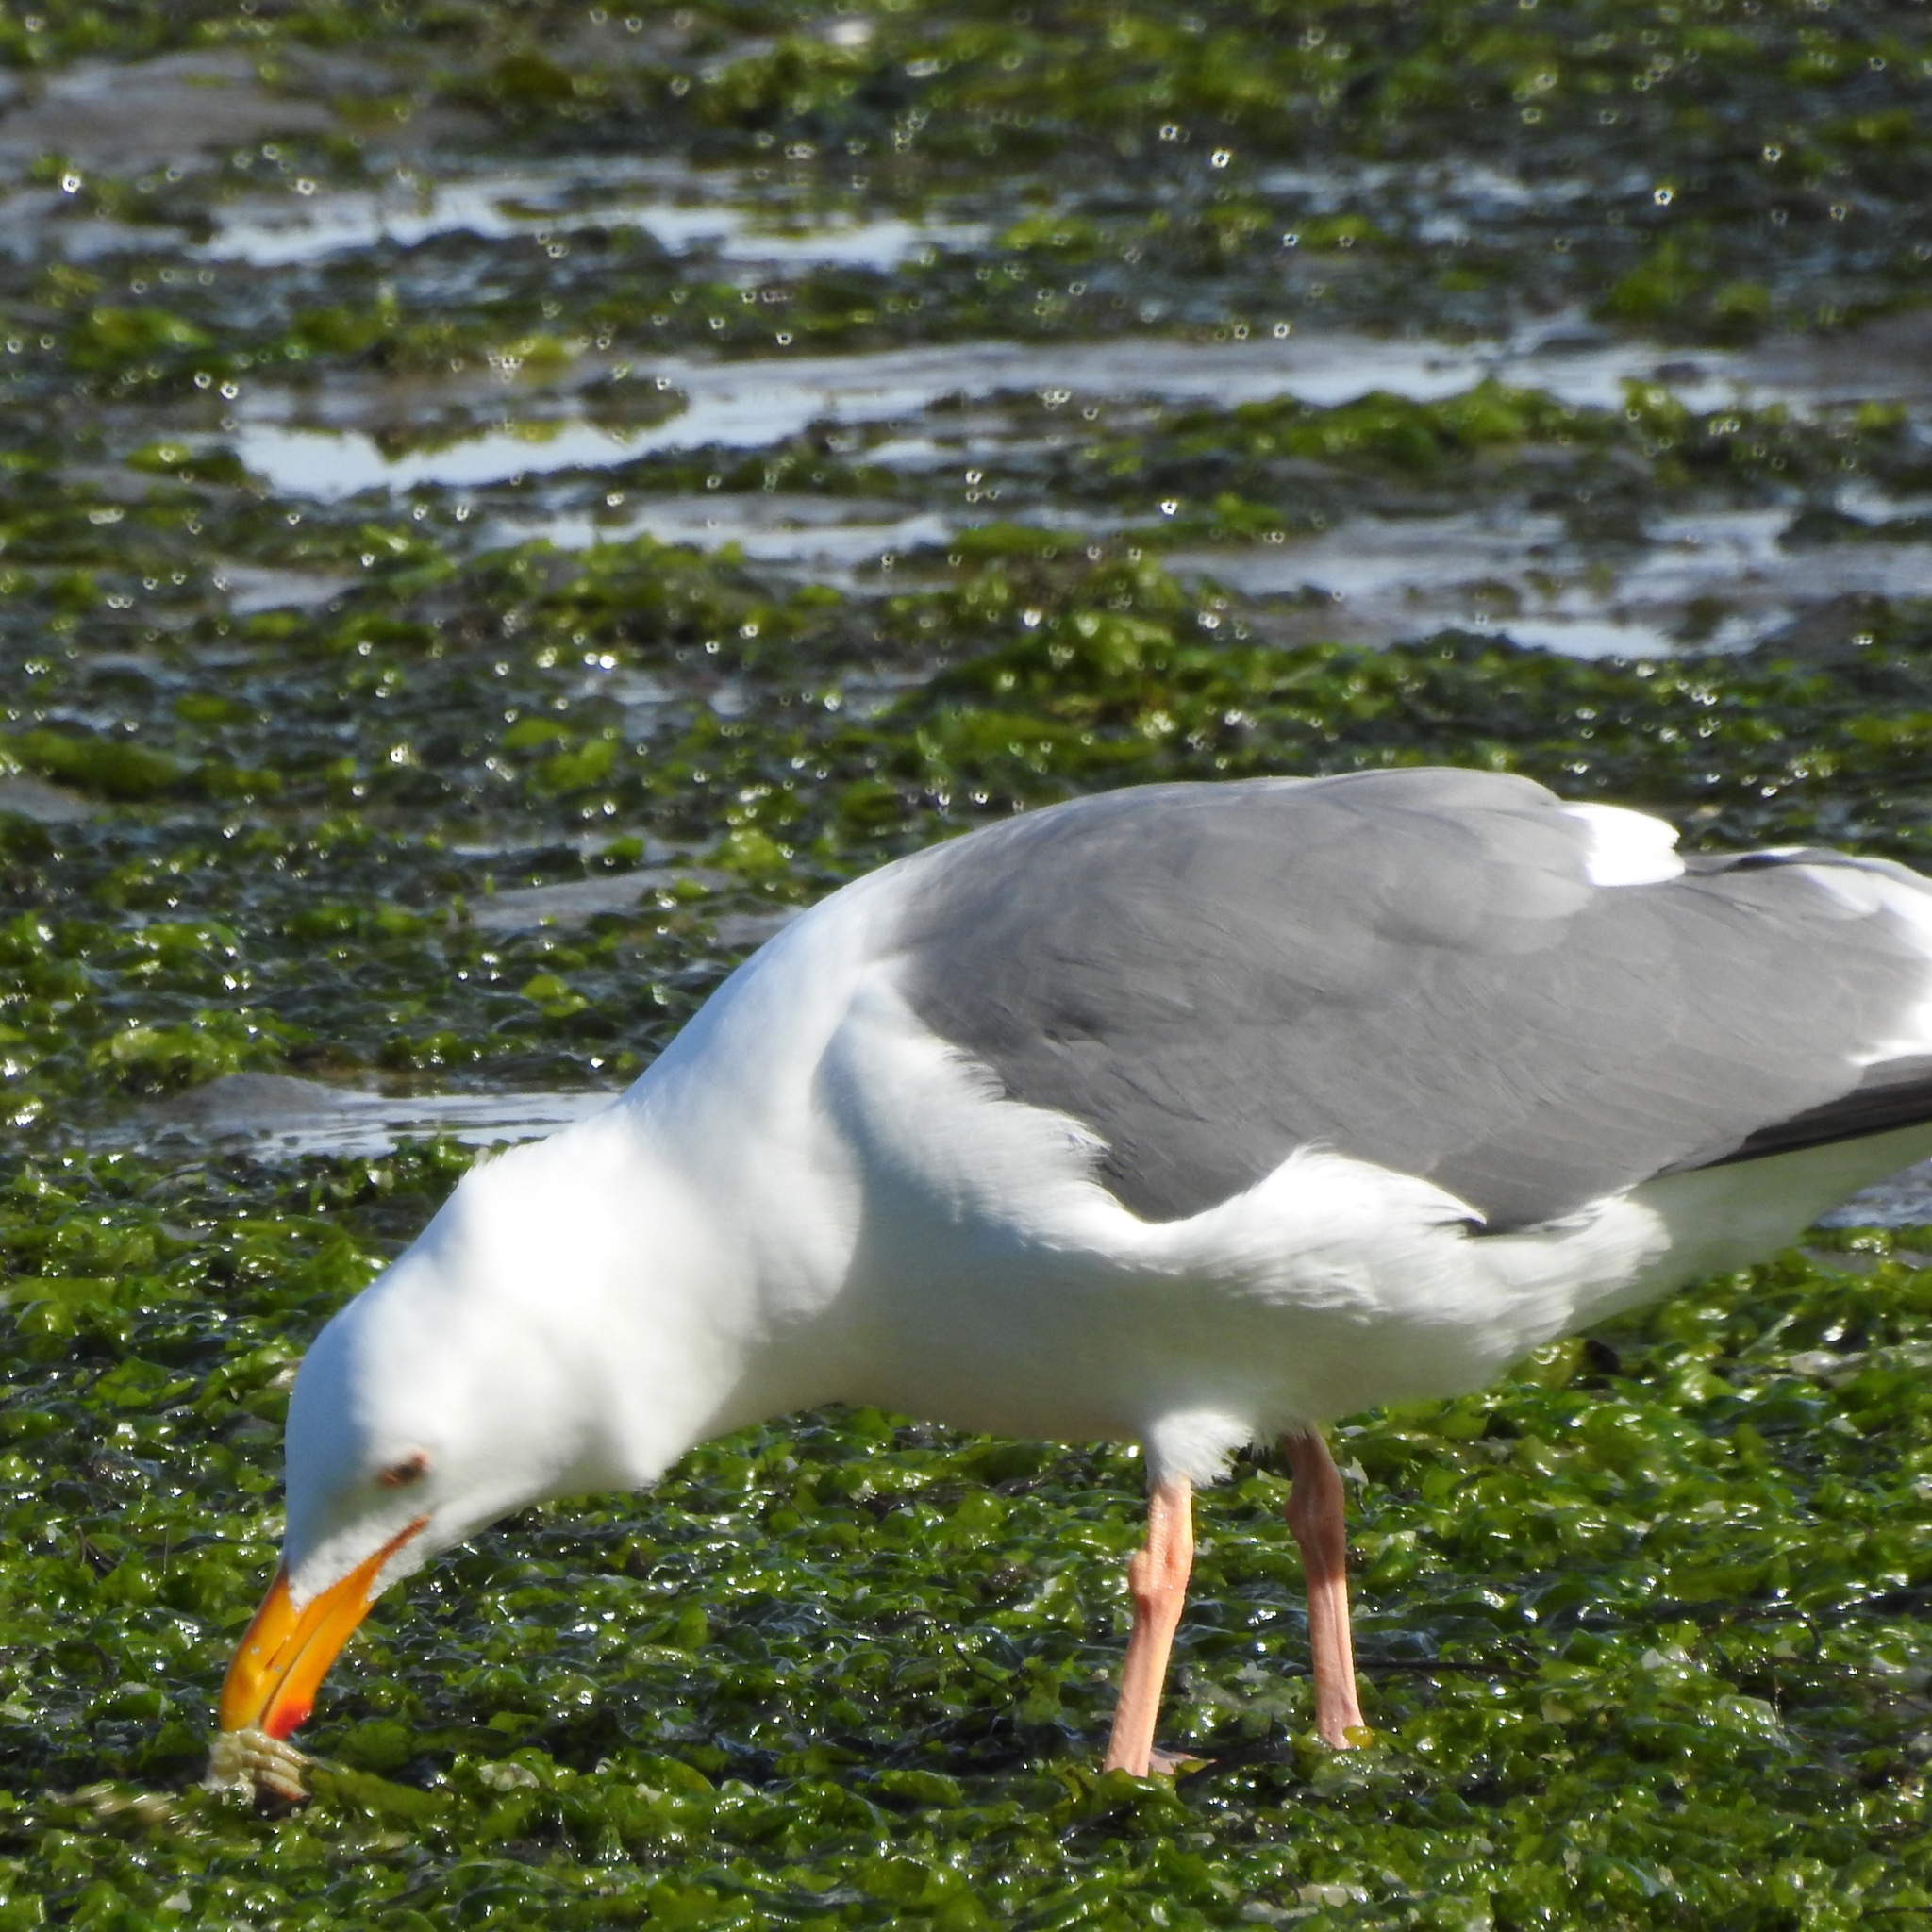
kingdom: Animalia
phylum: Chordata
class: Aves
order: Charadriiformes
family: Laridae
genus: Larus
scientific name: Larus occidentalis
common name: Western gull
